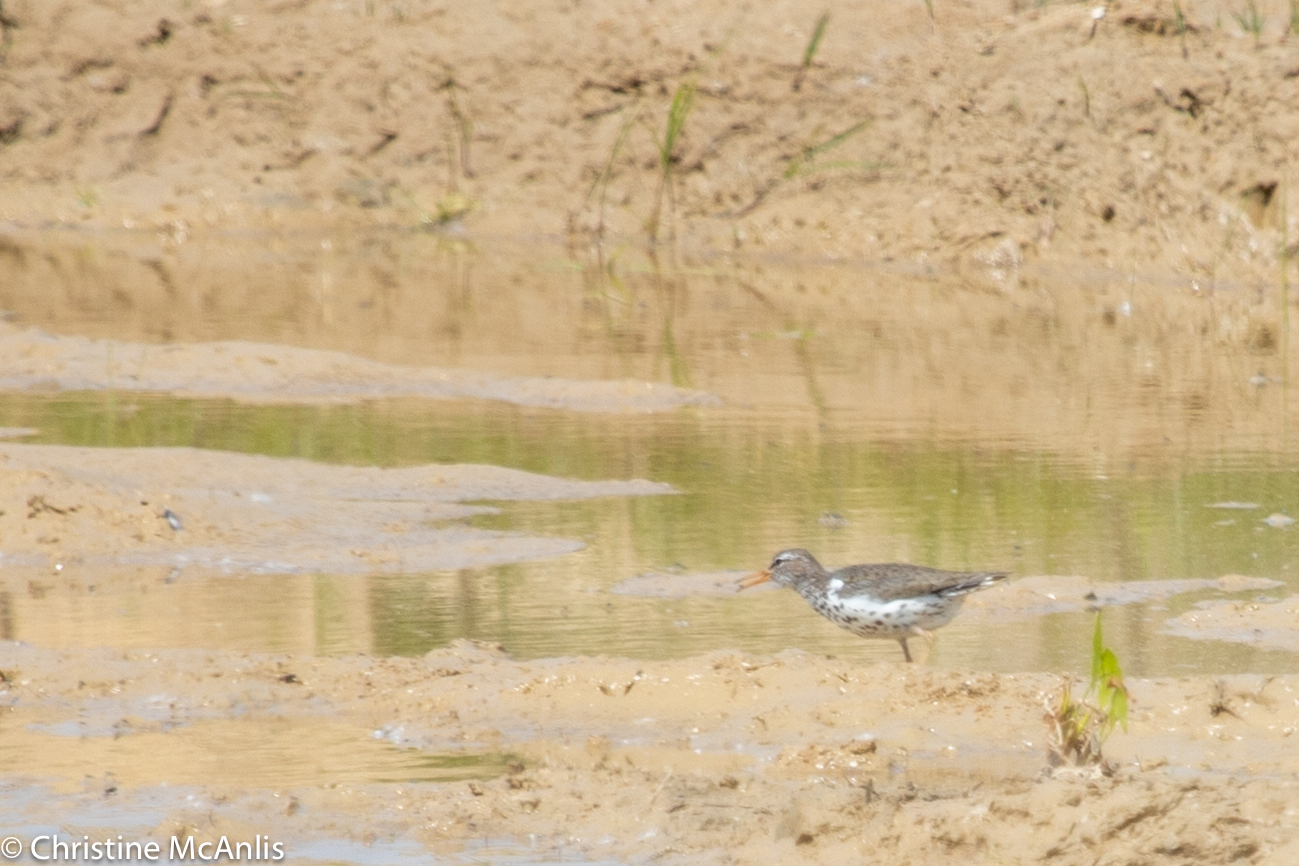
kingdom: Animalia
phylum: Chordata
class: Aves
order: Charadriiformes
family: Scolopacidae
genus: Actitis
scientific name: Actitis macularius
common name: Spotted sandpiper
